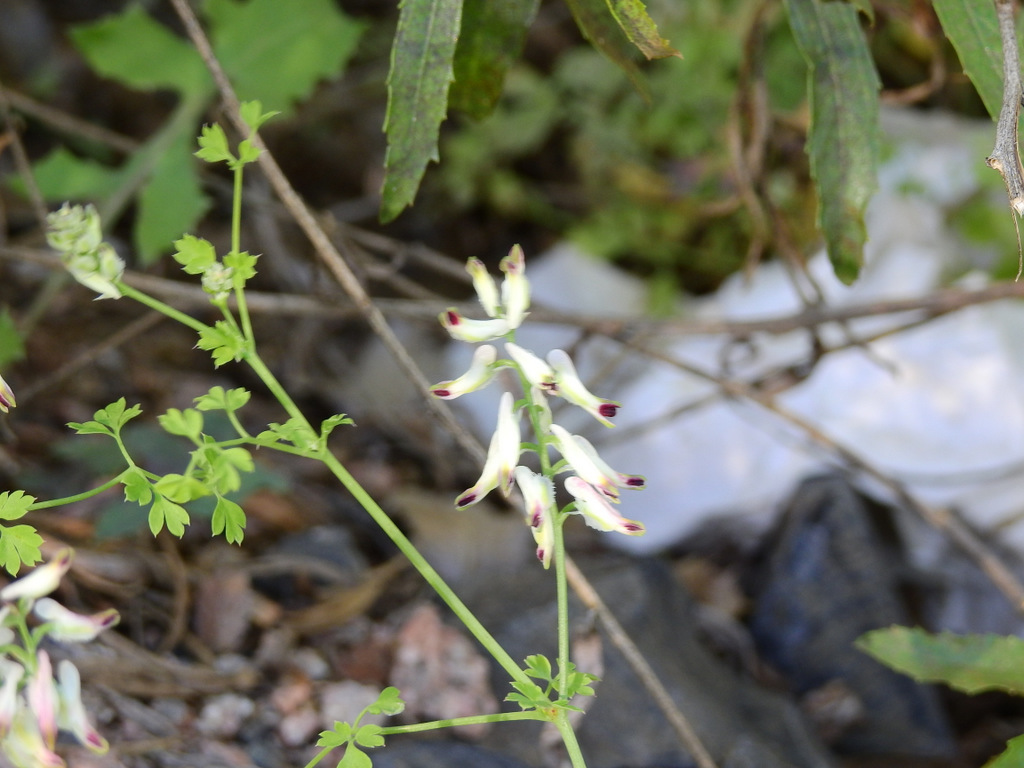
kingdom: Plantae
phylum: Tracheophyta
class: Magnoliopsida
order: Ranunculales
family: Papaveraceae
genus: Fumaria
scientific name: Fumaria capreolata
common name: White ramping-fumitory
